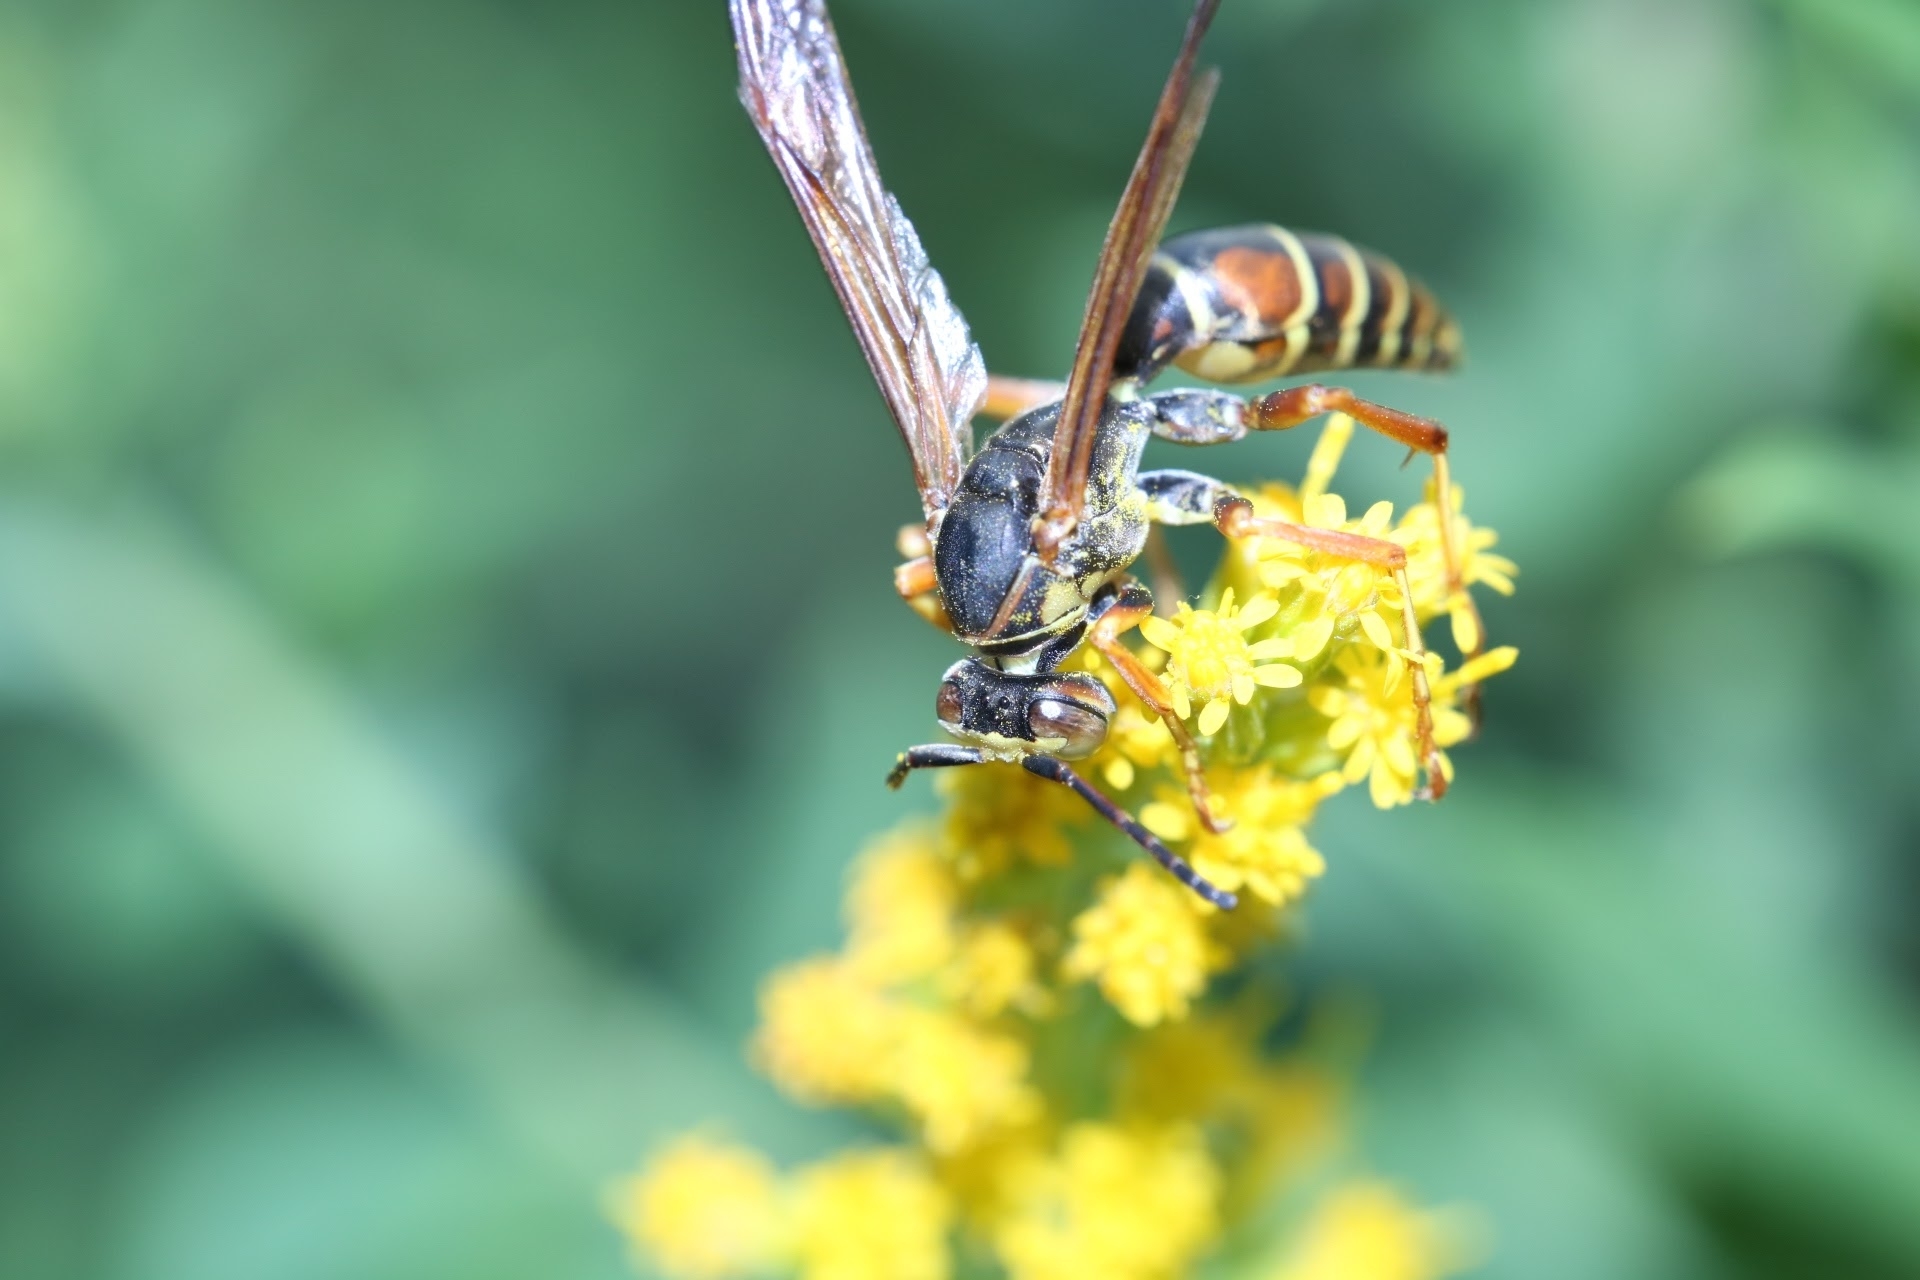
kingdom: Animalia
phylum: Arthropoda
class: Insecta
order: Hymenoptera
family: Eumenidae
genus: Polistes
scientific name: Polistes fuscatus
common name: Dark paper wasp
